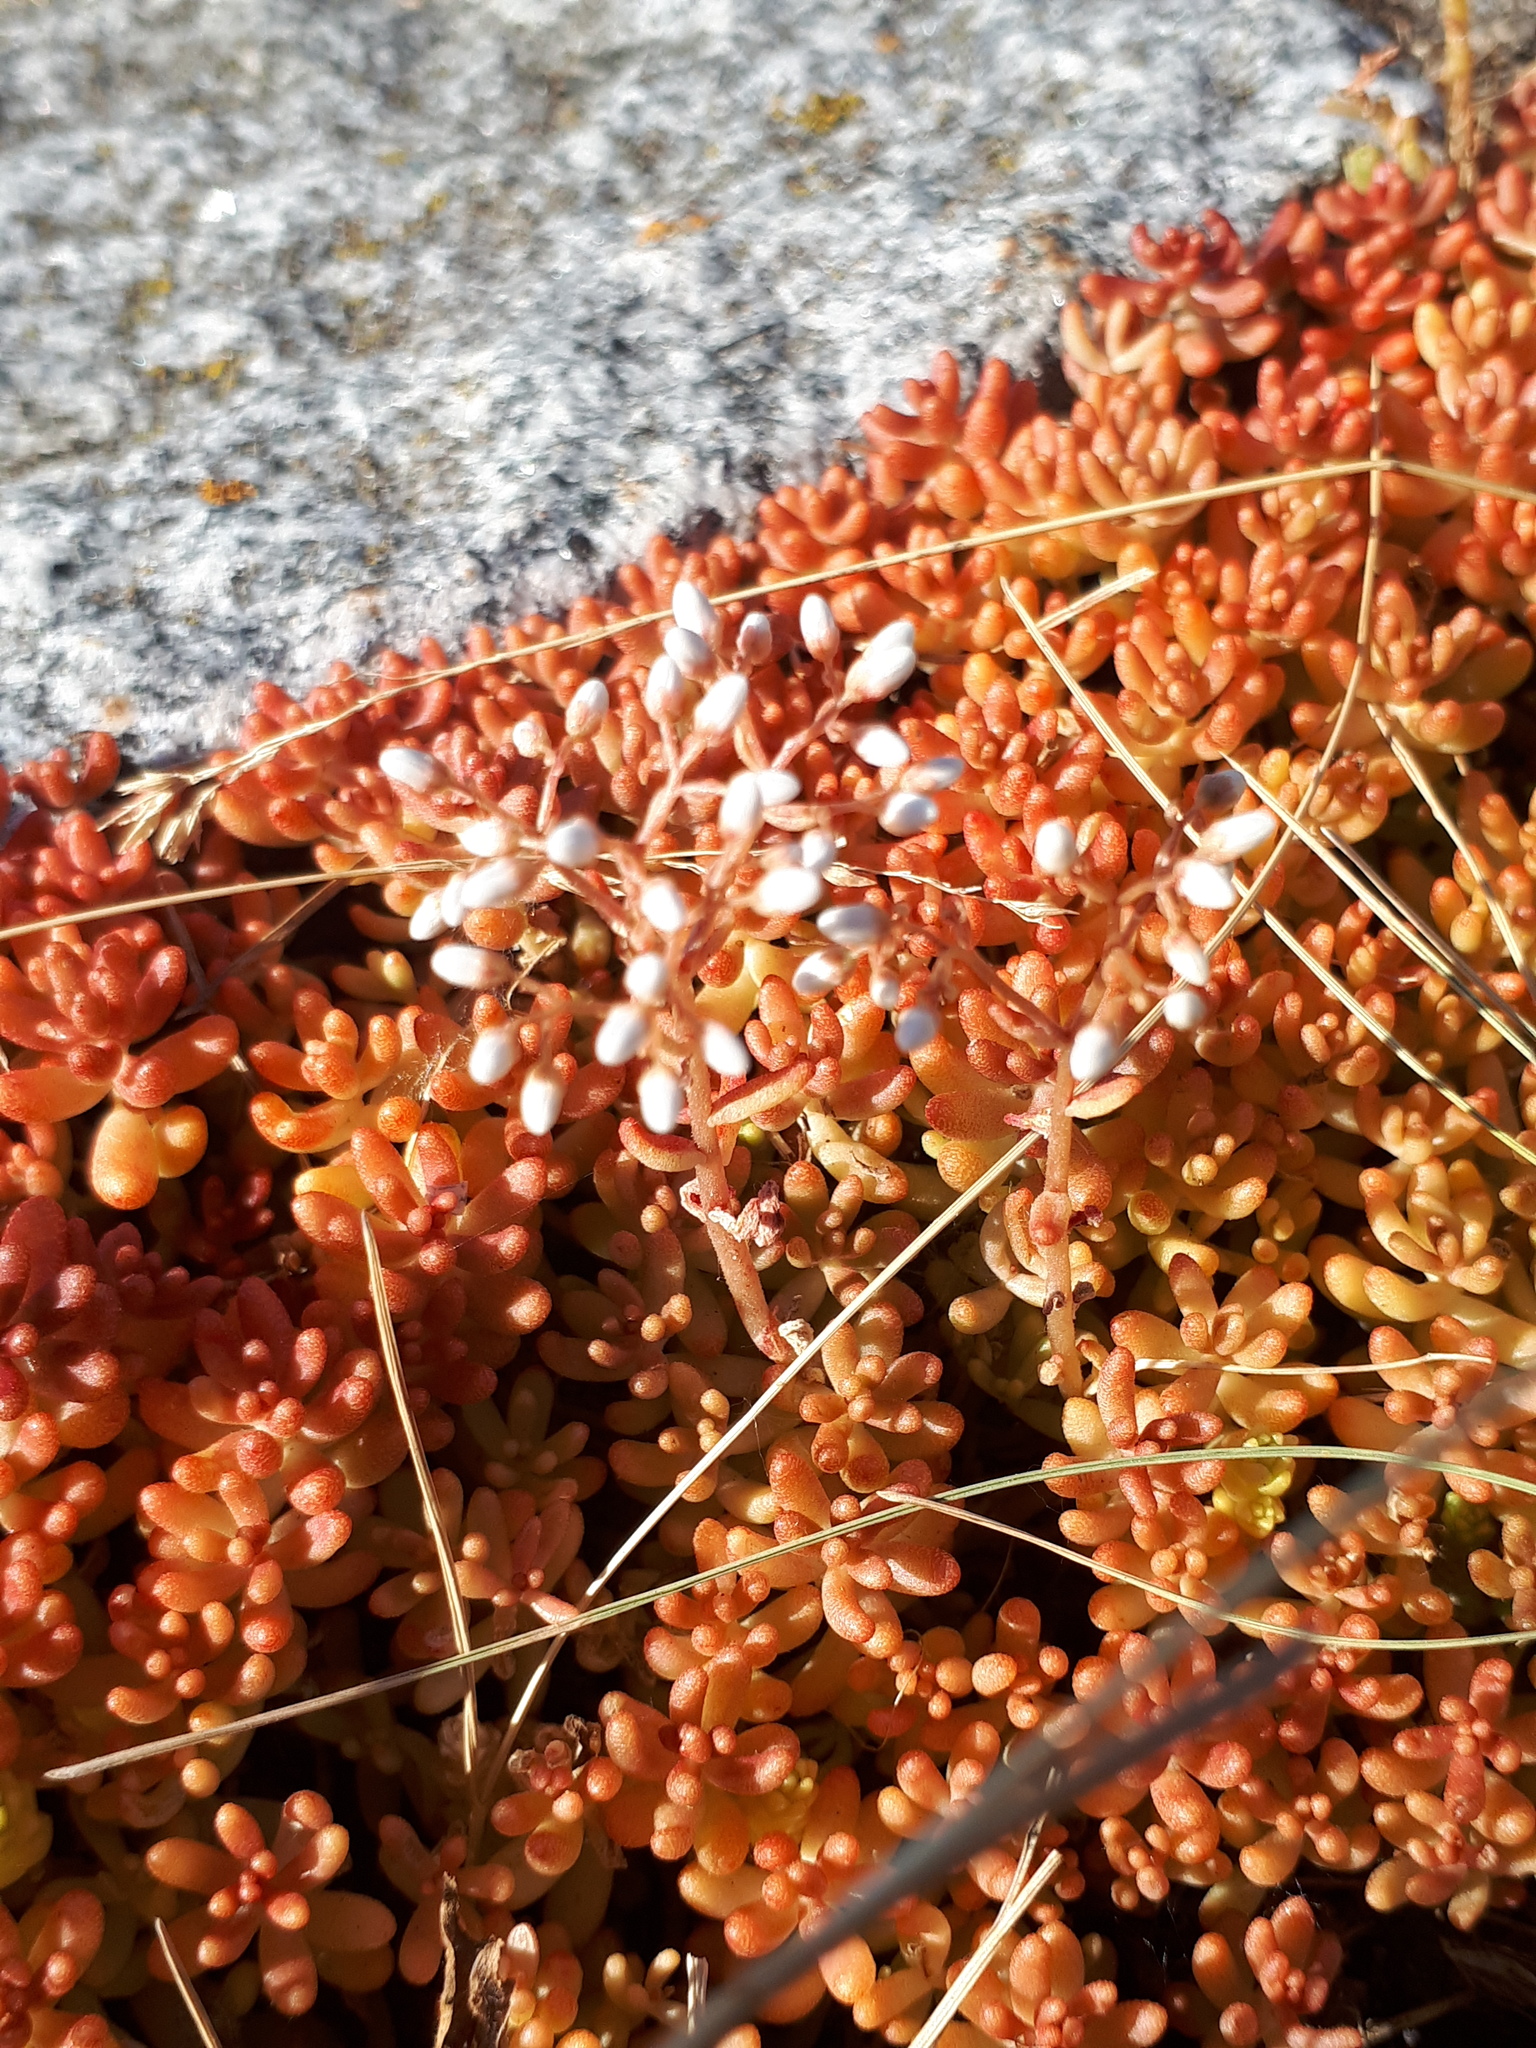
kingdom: Plantae
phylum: Tracheophyta
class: Magnoliopsida
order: Saxifragales
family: Crassulaceae
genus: Sedum
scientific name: Sedum album
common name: White stonecrop
